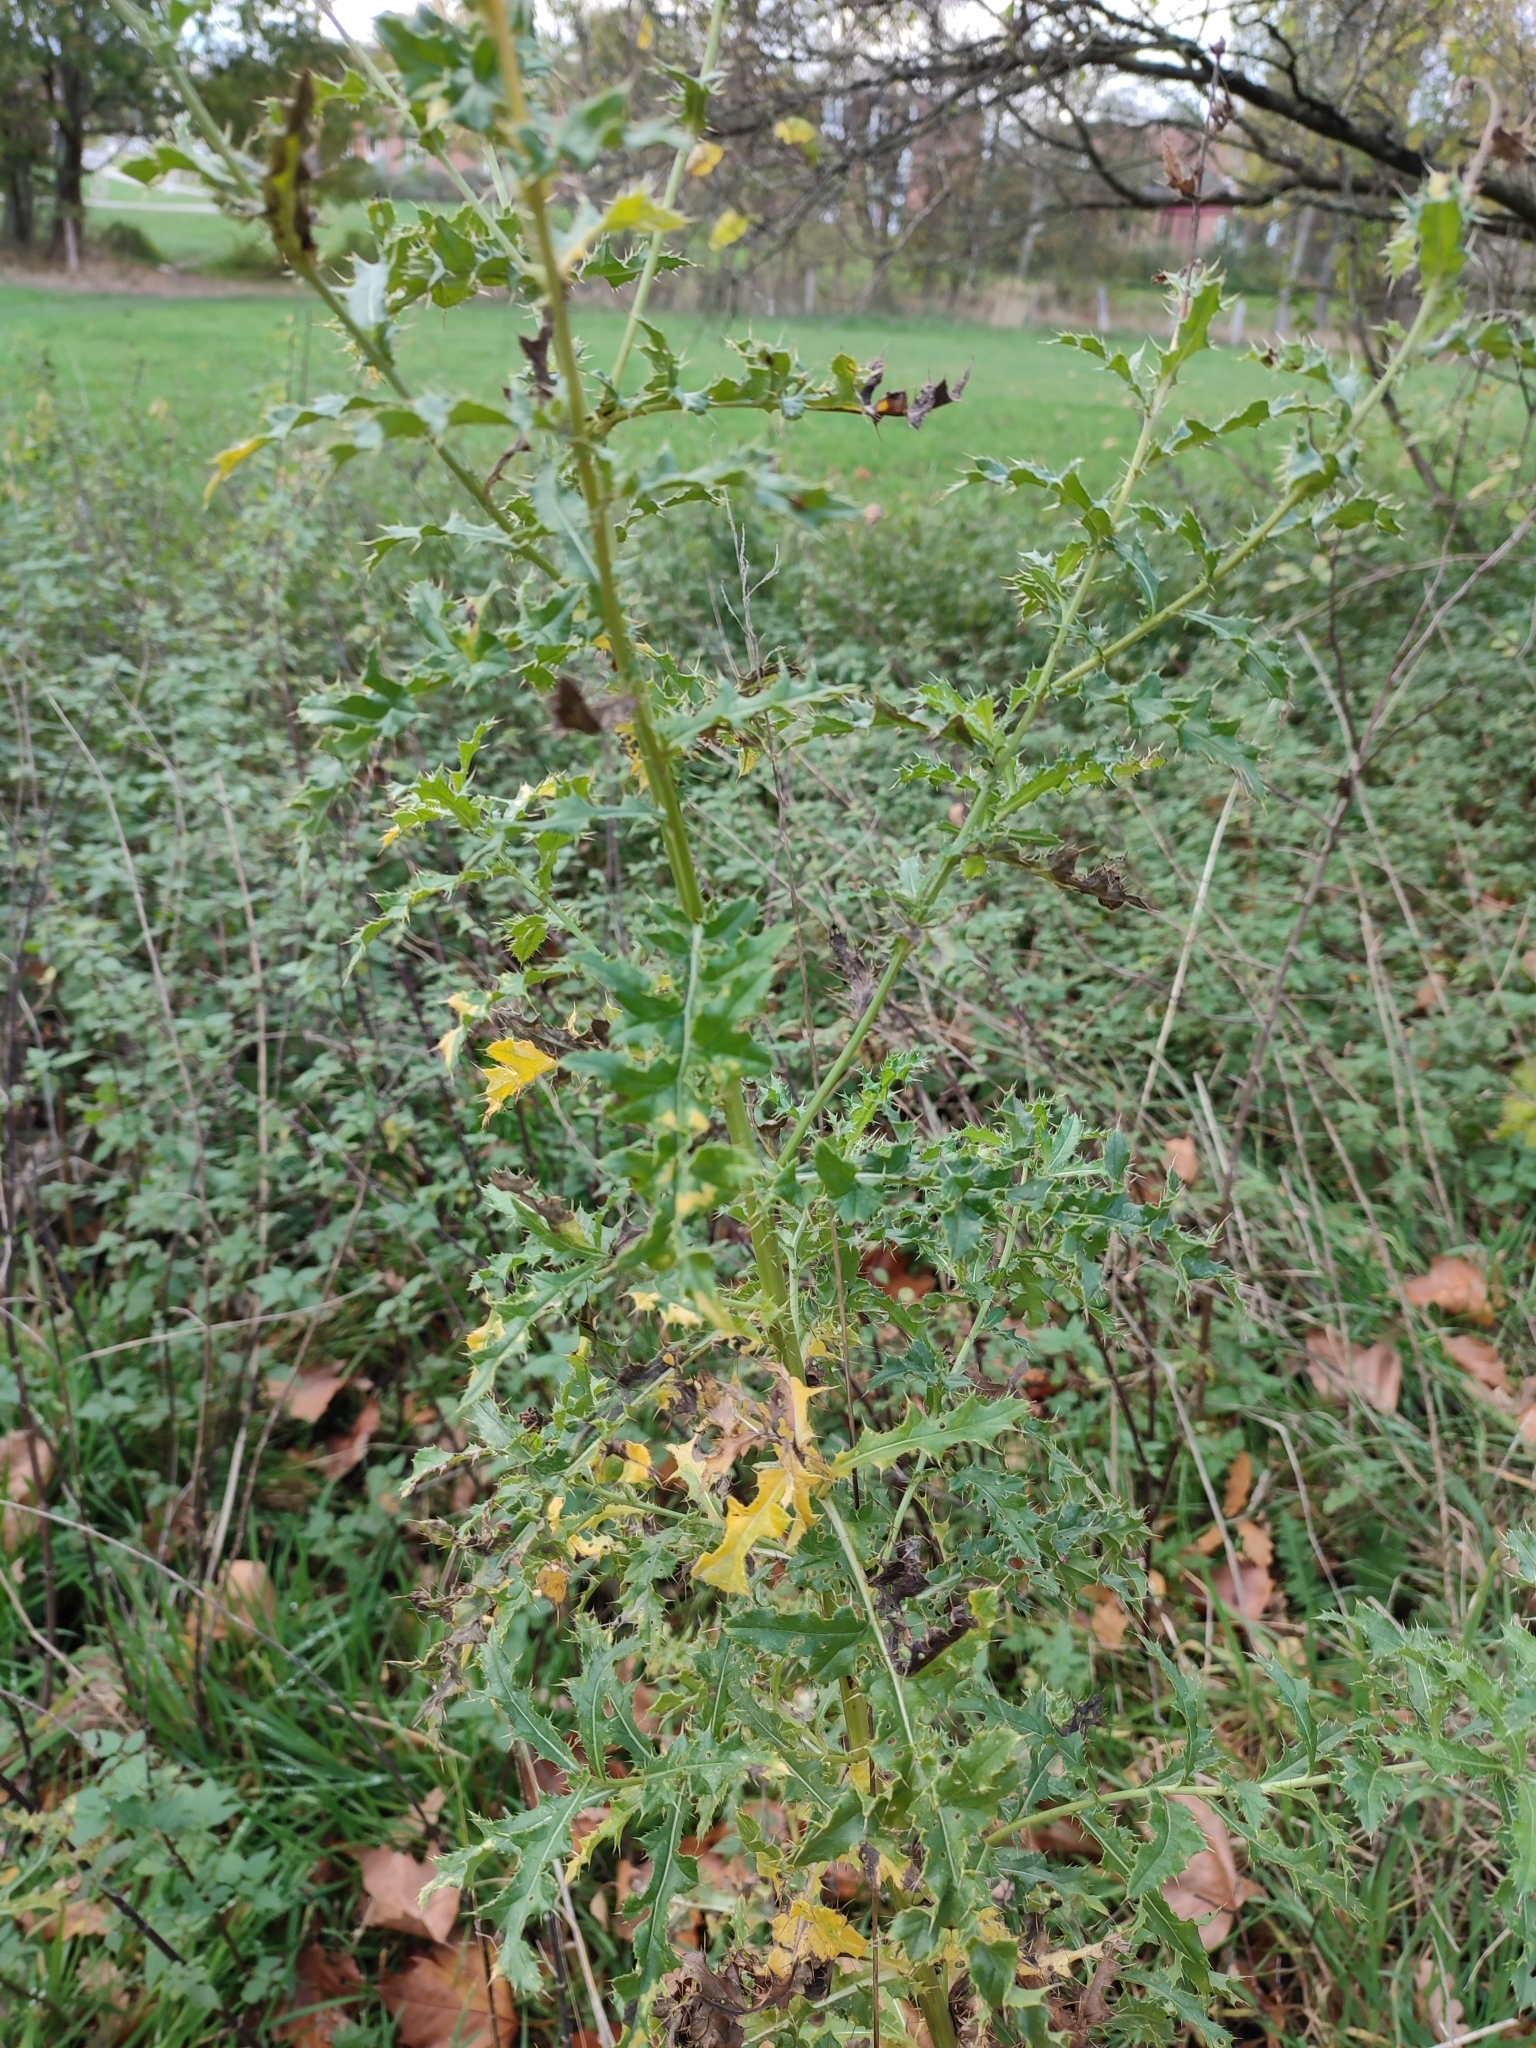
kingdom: Plantae
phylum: Tracheophyta
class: Magnoliopsida
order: Asterales
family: Asteraceae
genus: Cirsium
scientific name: Cirsium arvense
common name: Creeping thistle
